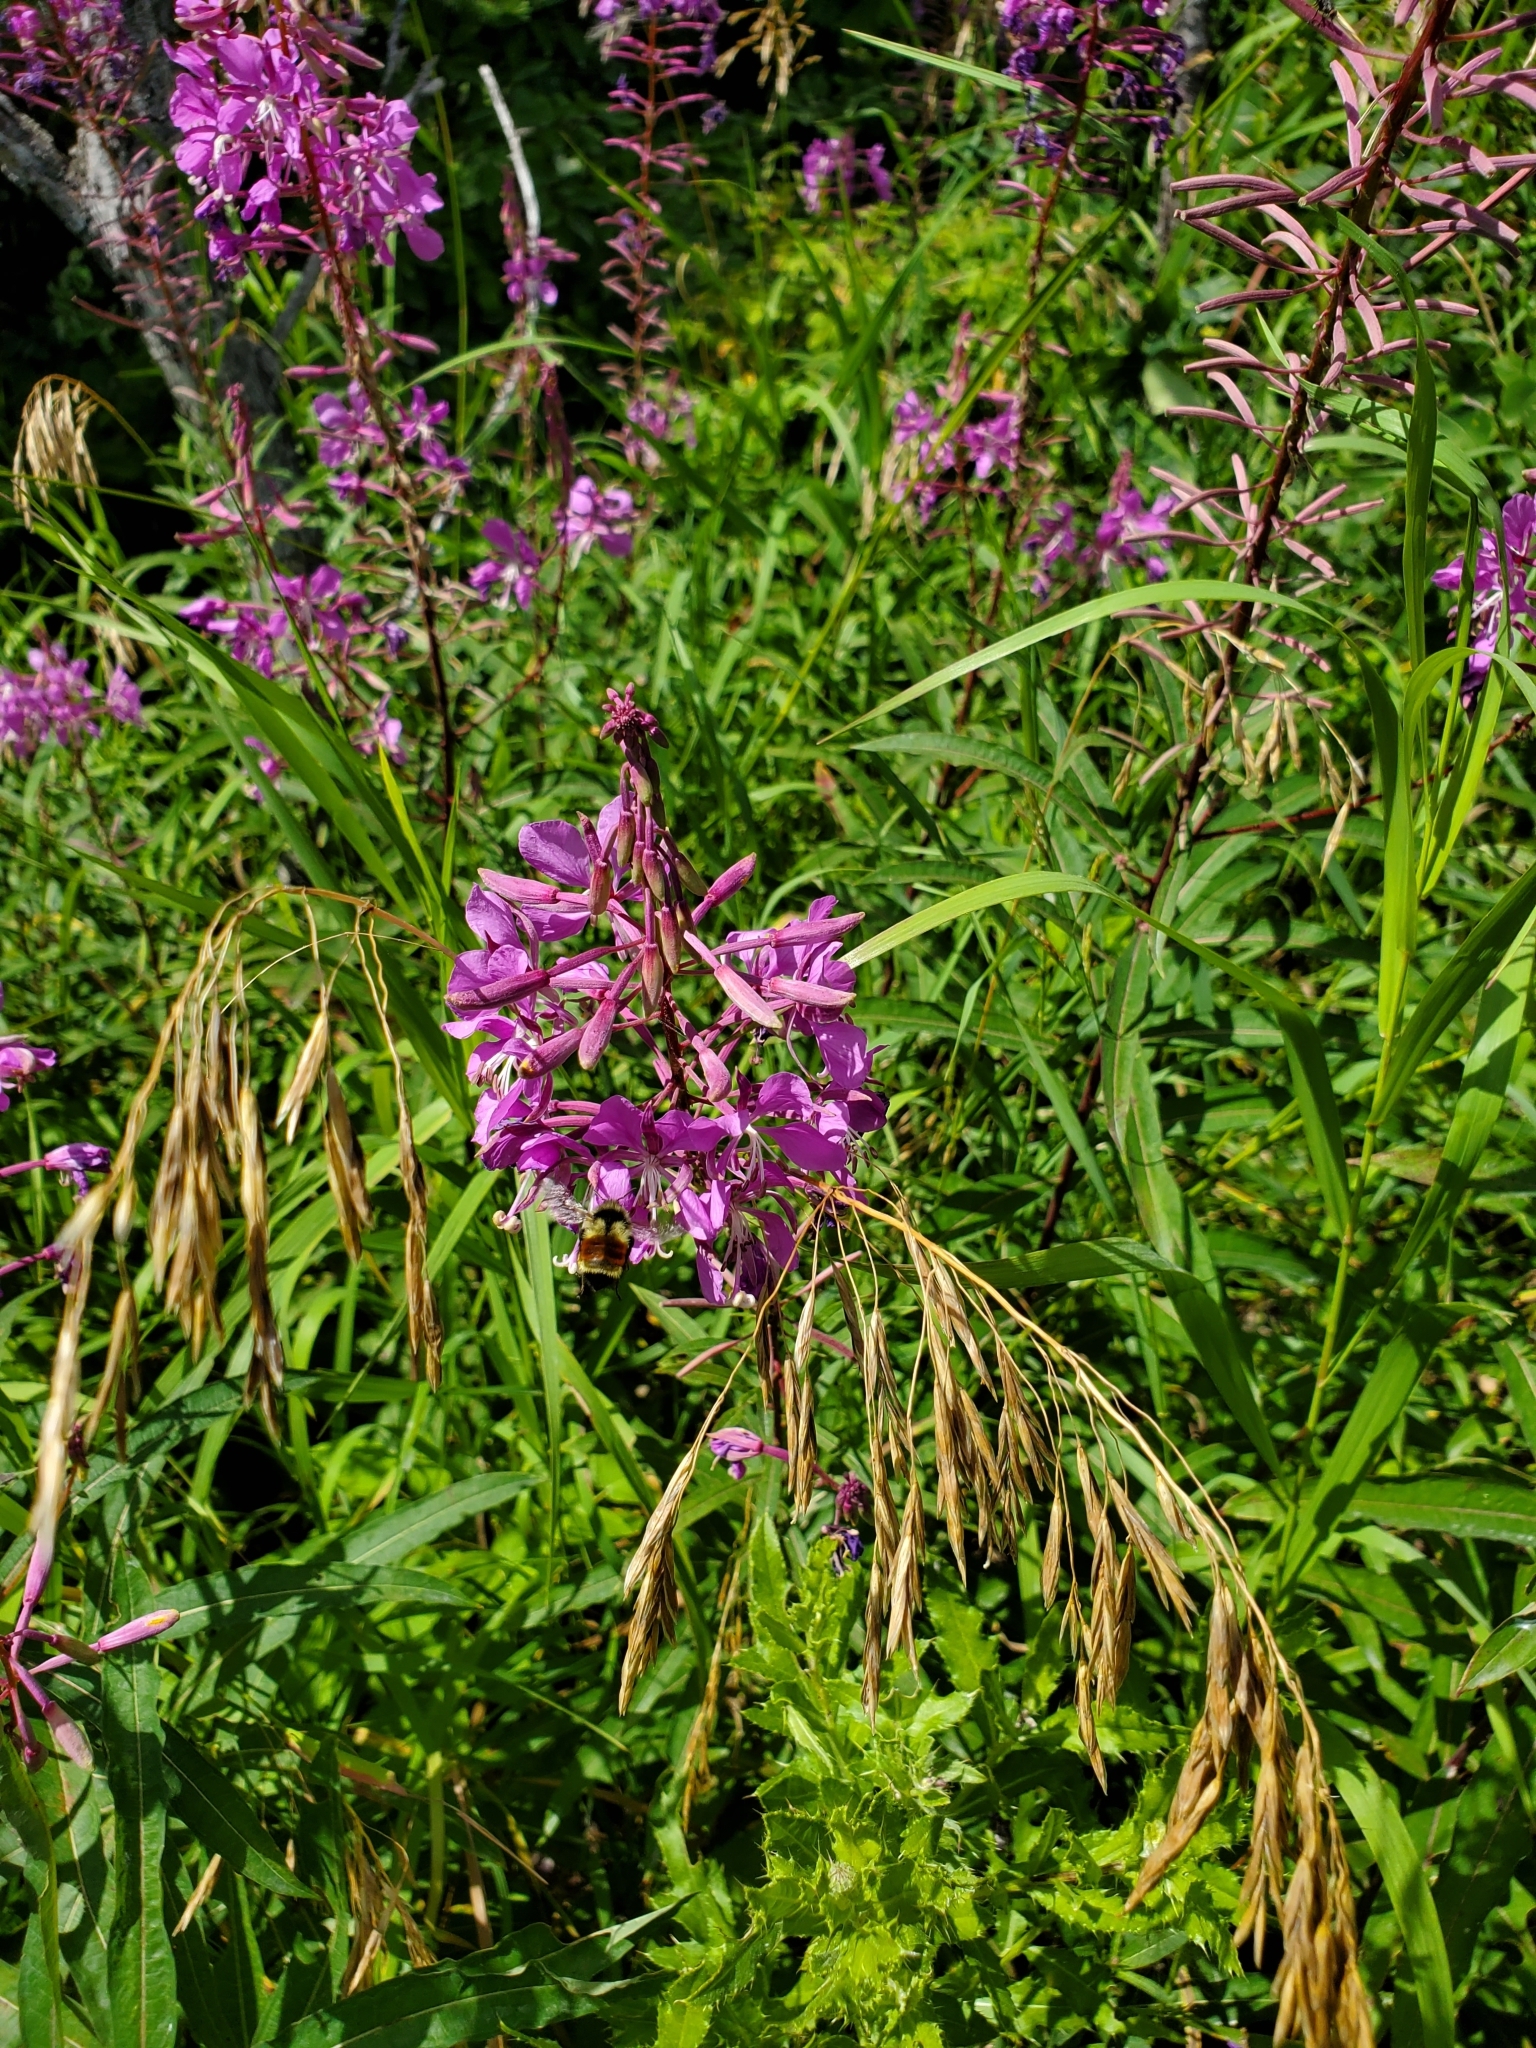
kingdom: Plantae
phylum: Tracheophyta
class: Magnoliopsida
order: Myrtales
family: Onagraceae
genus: Chamaenerion
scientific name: Chamaenerion angustifolium
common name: Fireweed
